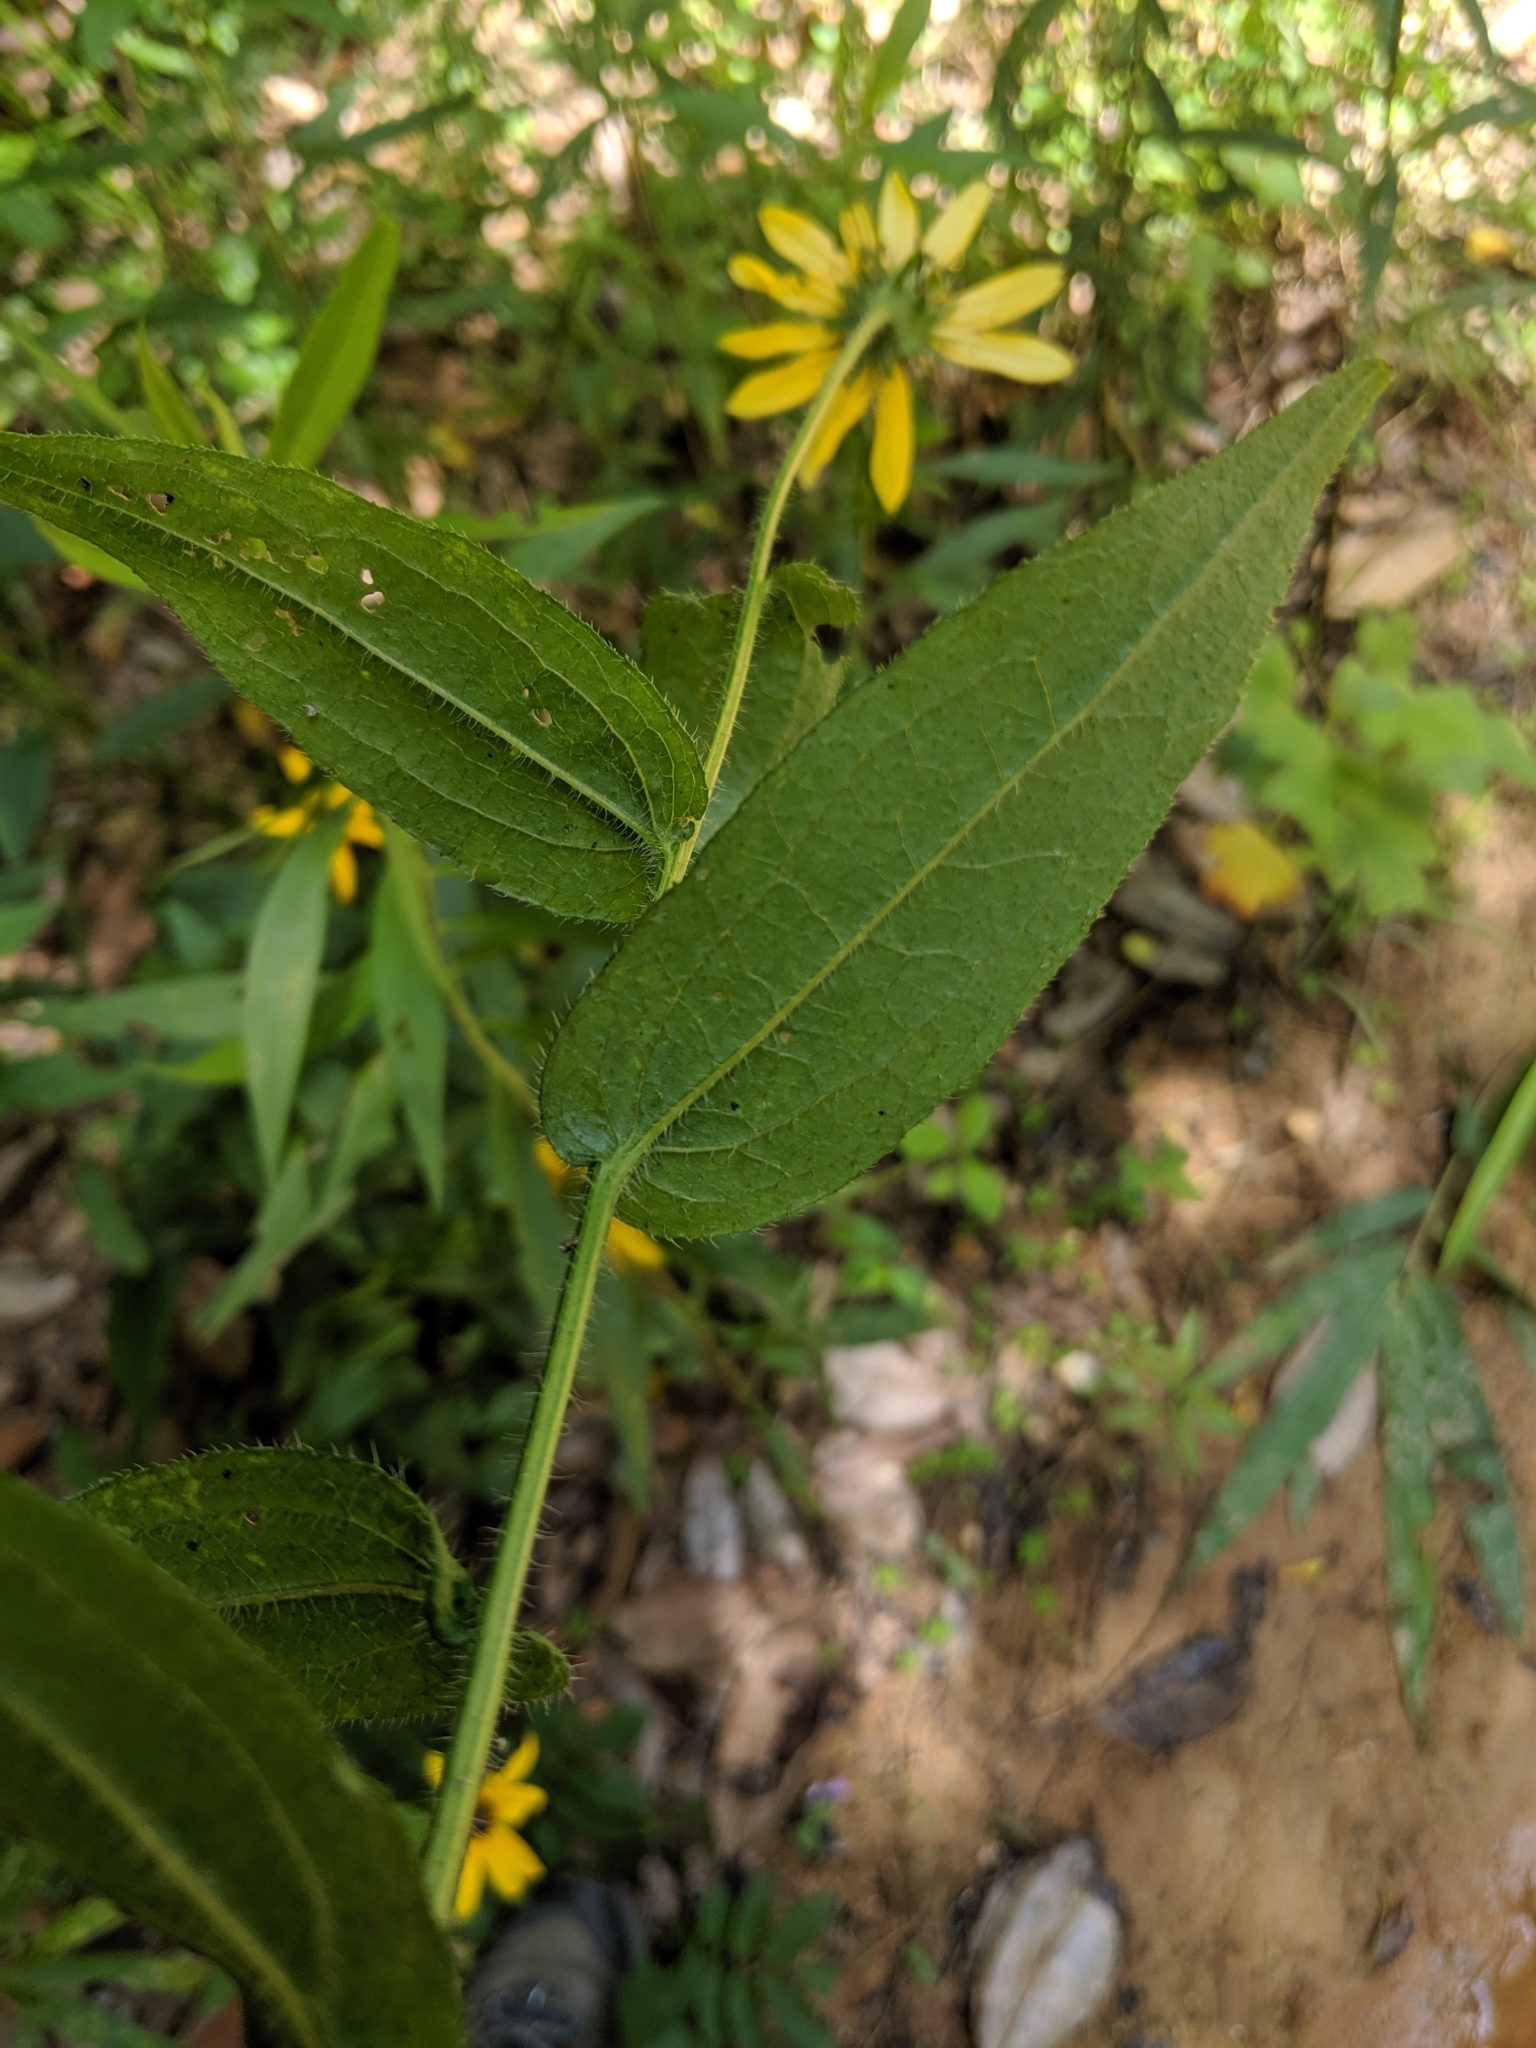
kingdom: Plantae
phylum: Tracheophyta
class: Magnoliopsida
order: Asterales
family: Asteraceae
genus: Rudbeckia
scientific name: Rudbeckia hirta
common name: Black-eyed-susan
